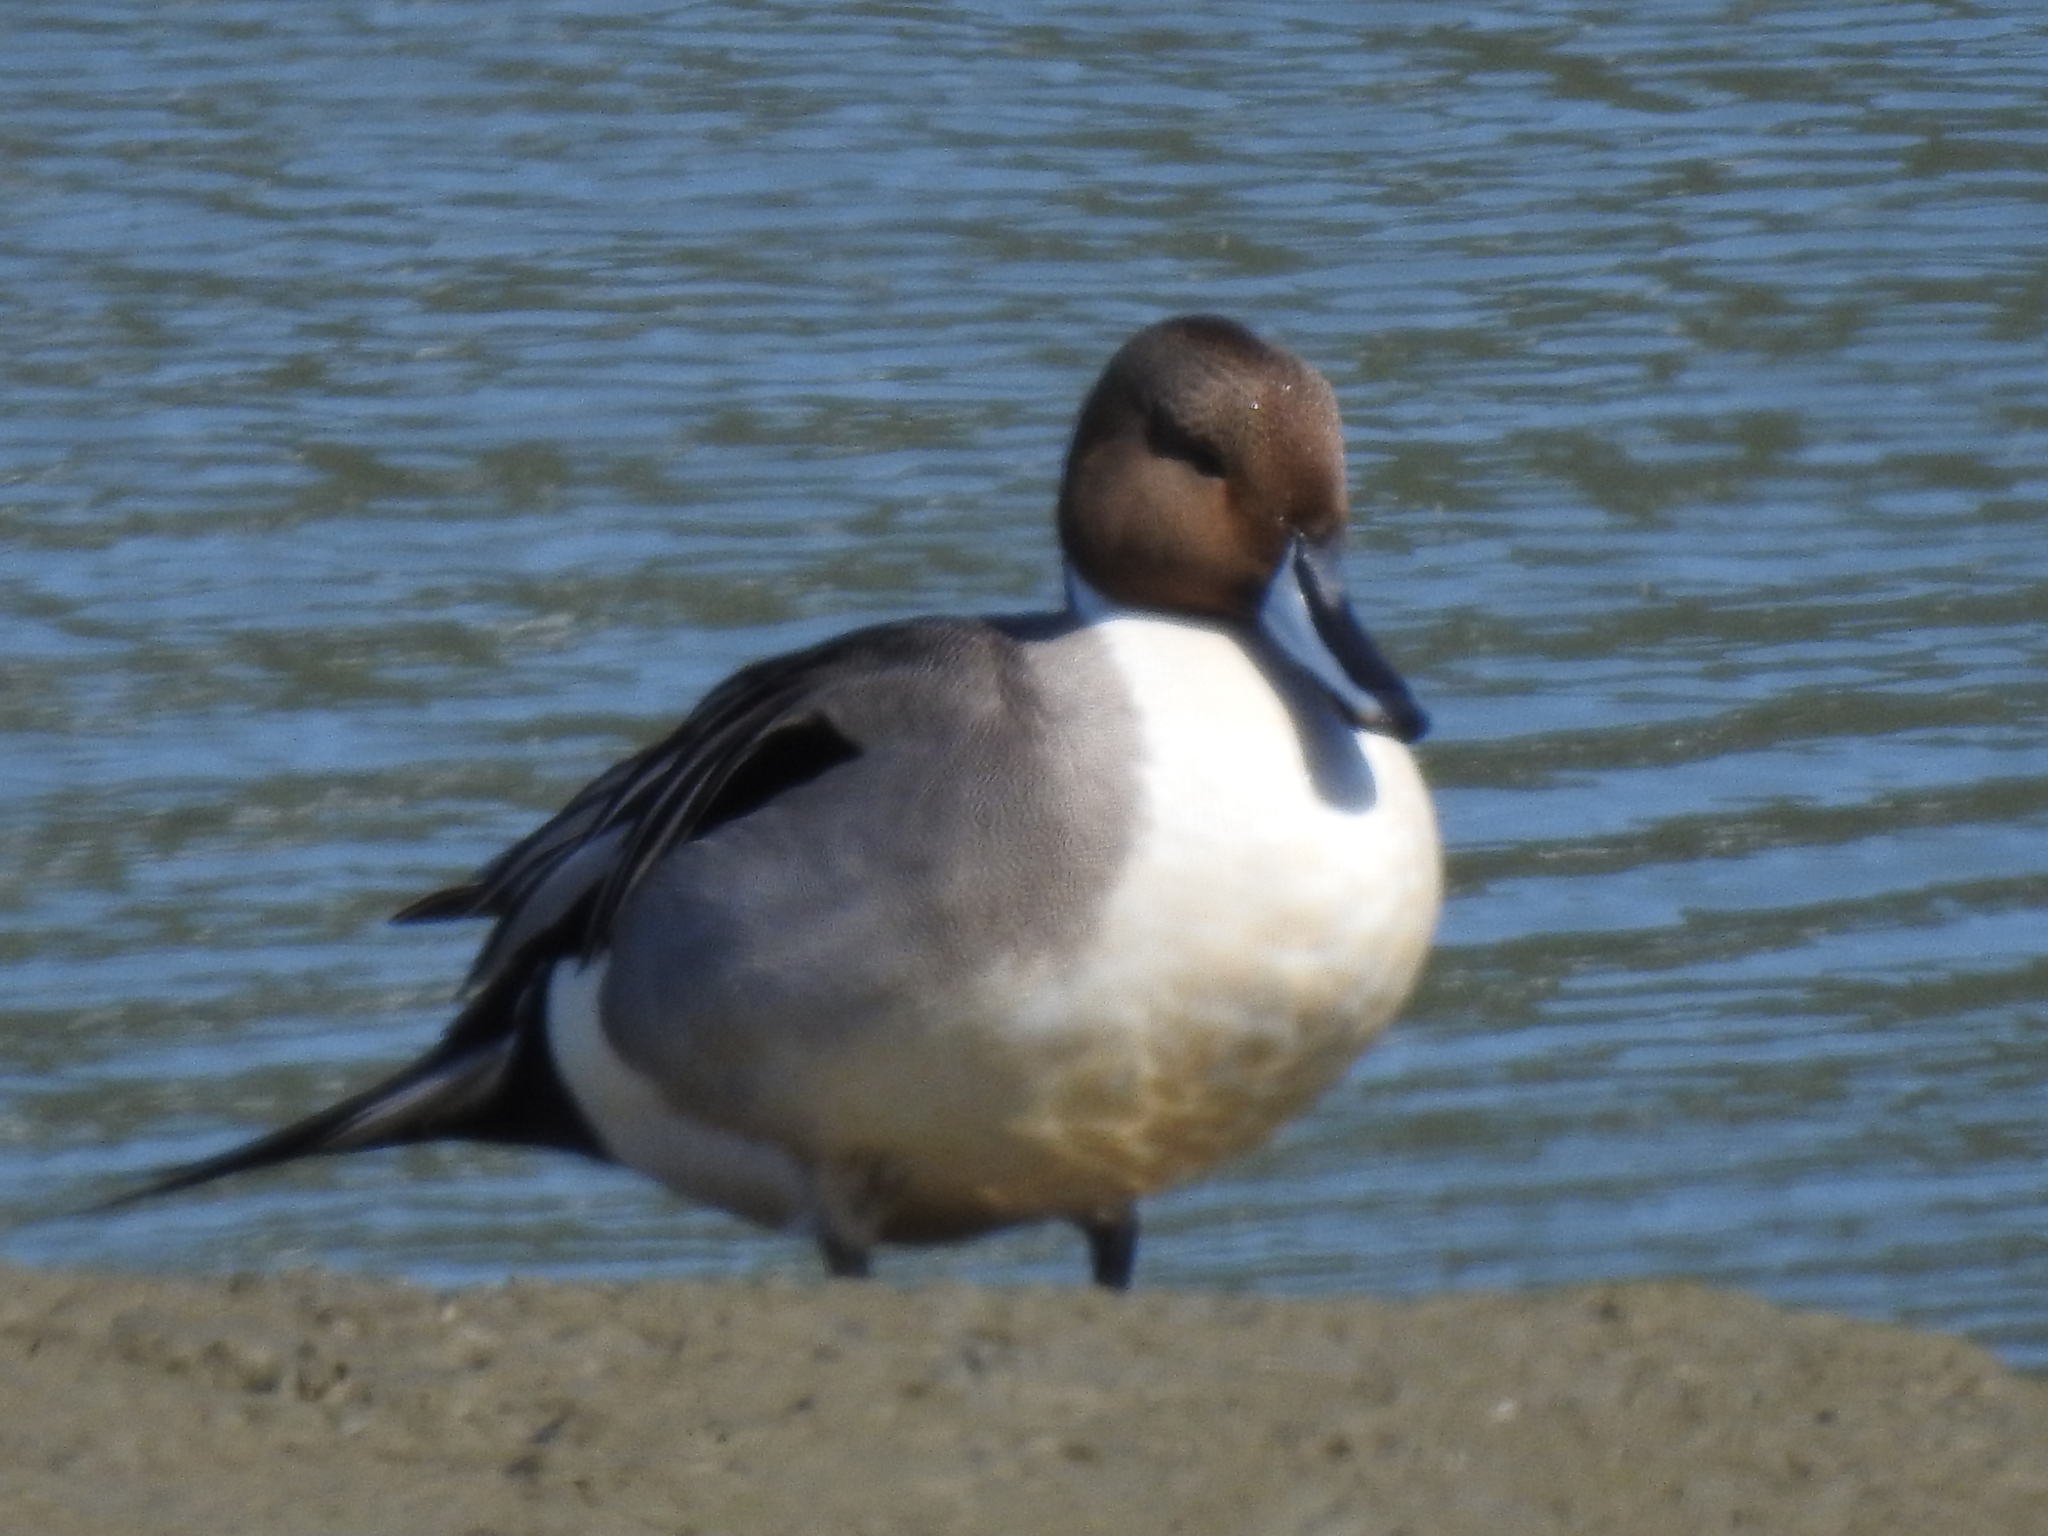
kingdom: Animalia
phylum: Chordata
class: Aves
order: Anseriformes
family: Anatidae
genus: Anas
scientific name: Anas acuta
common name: Northern pintail
